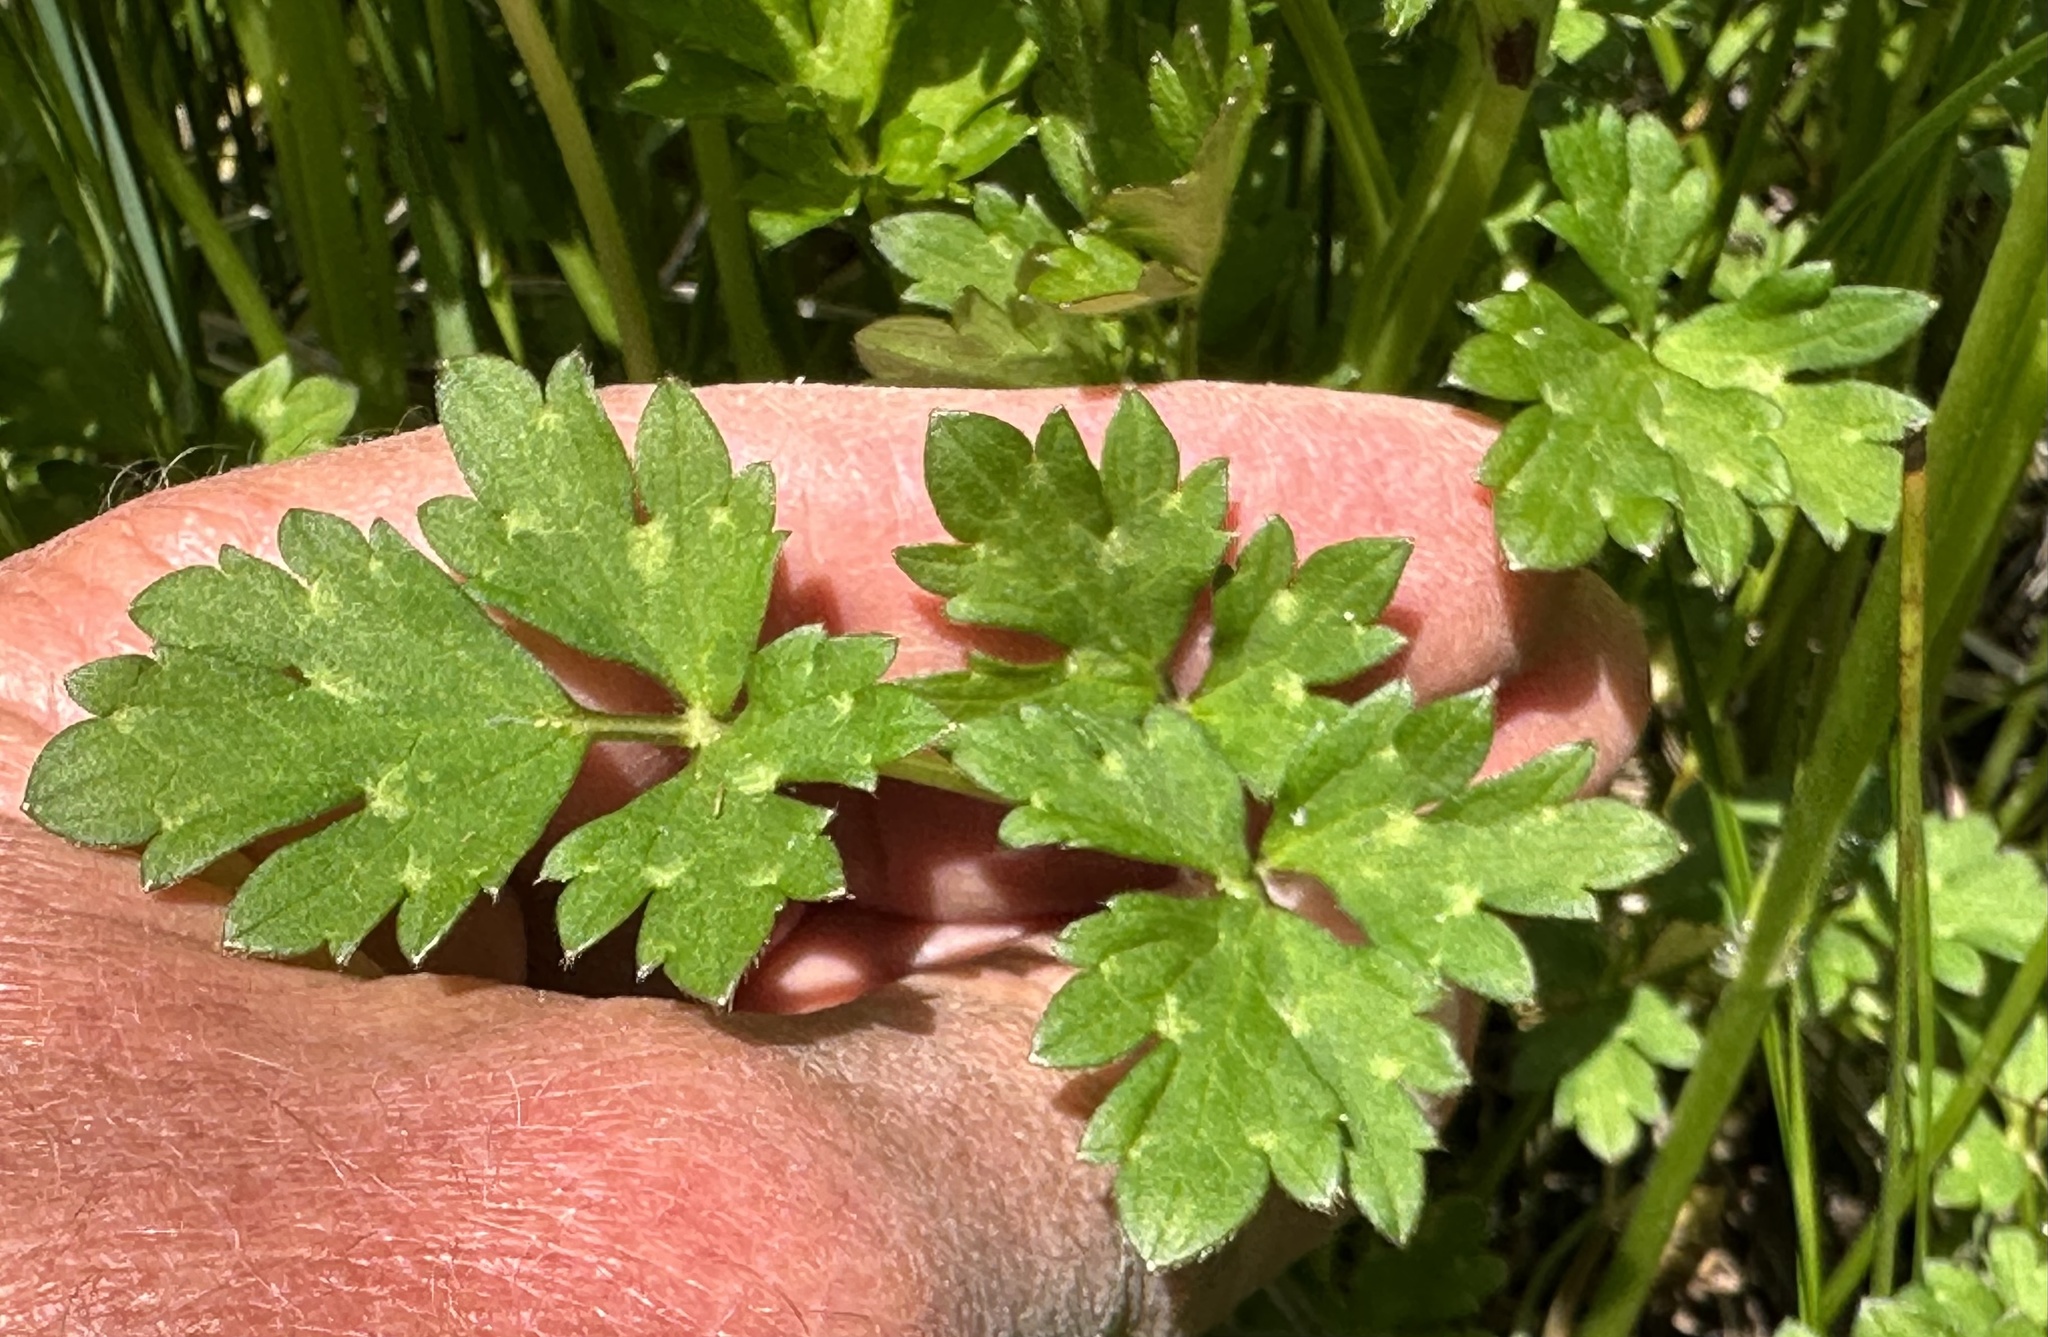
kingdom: Plantae
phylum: Tracheophyta
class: Magnoliopsida
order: Ranunculales
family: Ranunculaceae
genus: Ranunculus
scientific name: Ranunculus repens
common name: Creeping buttercup
